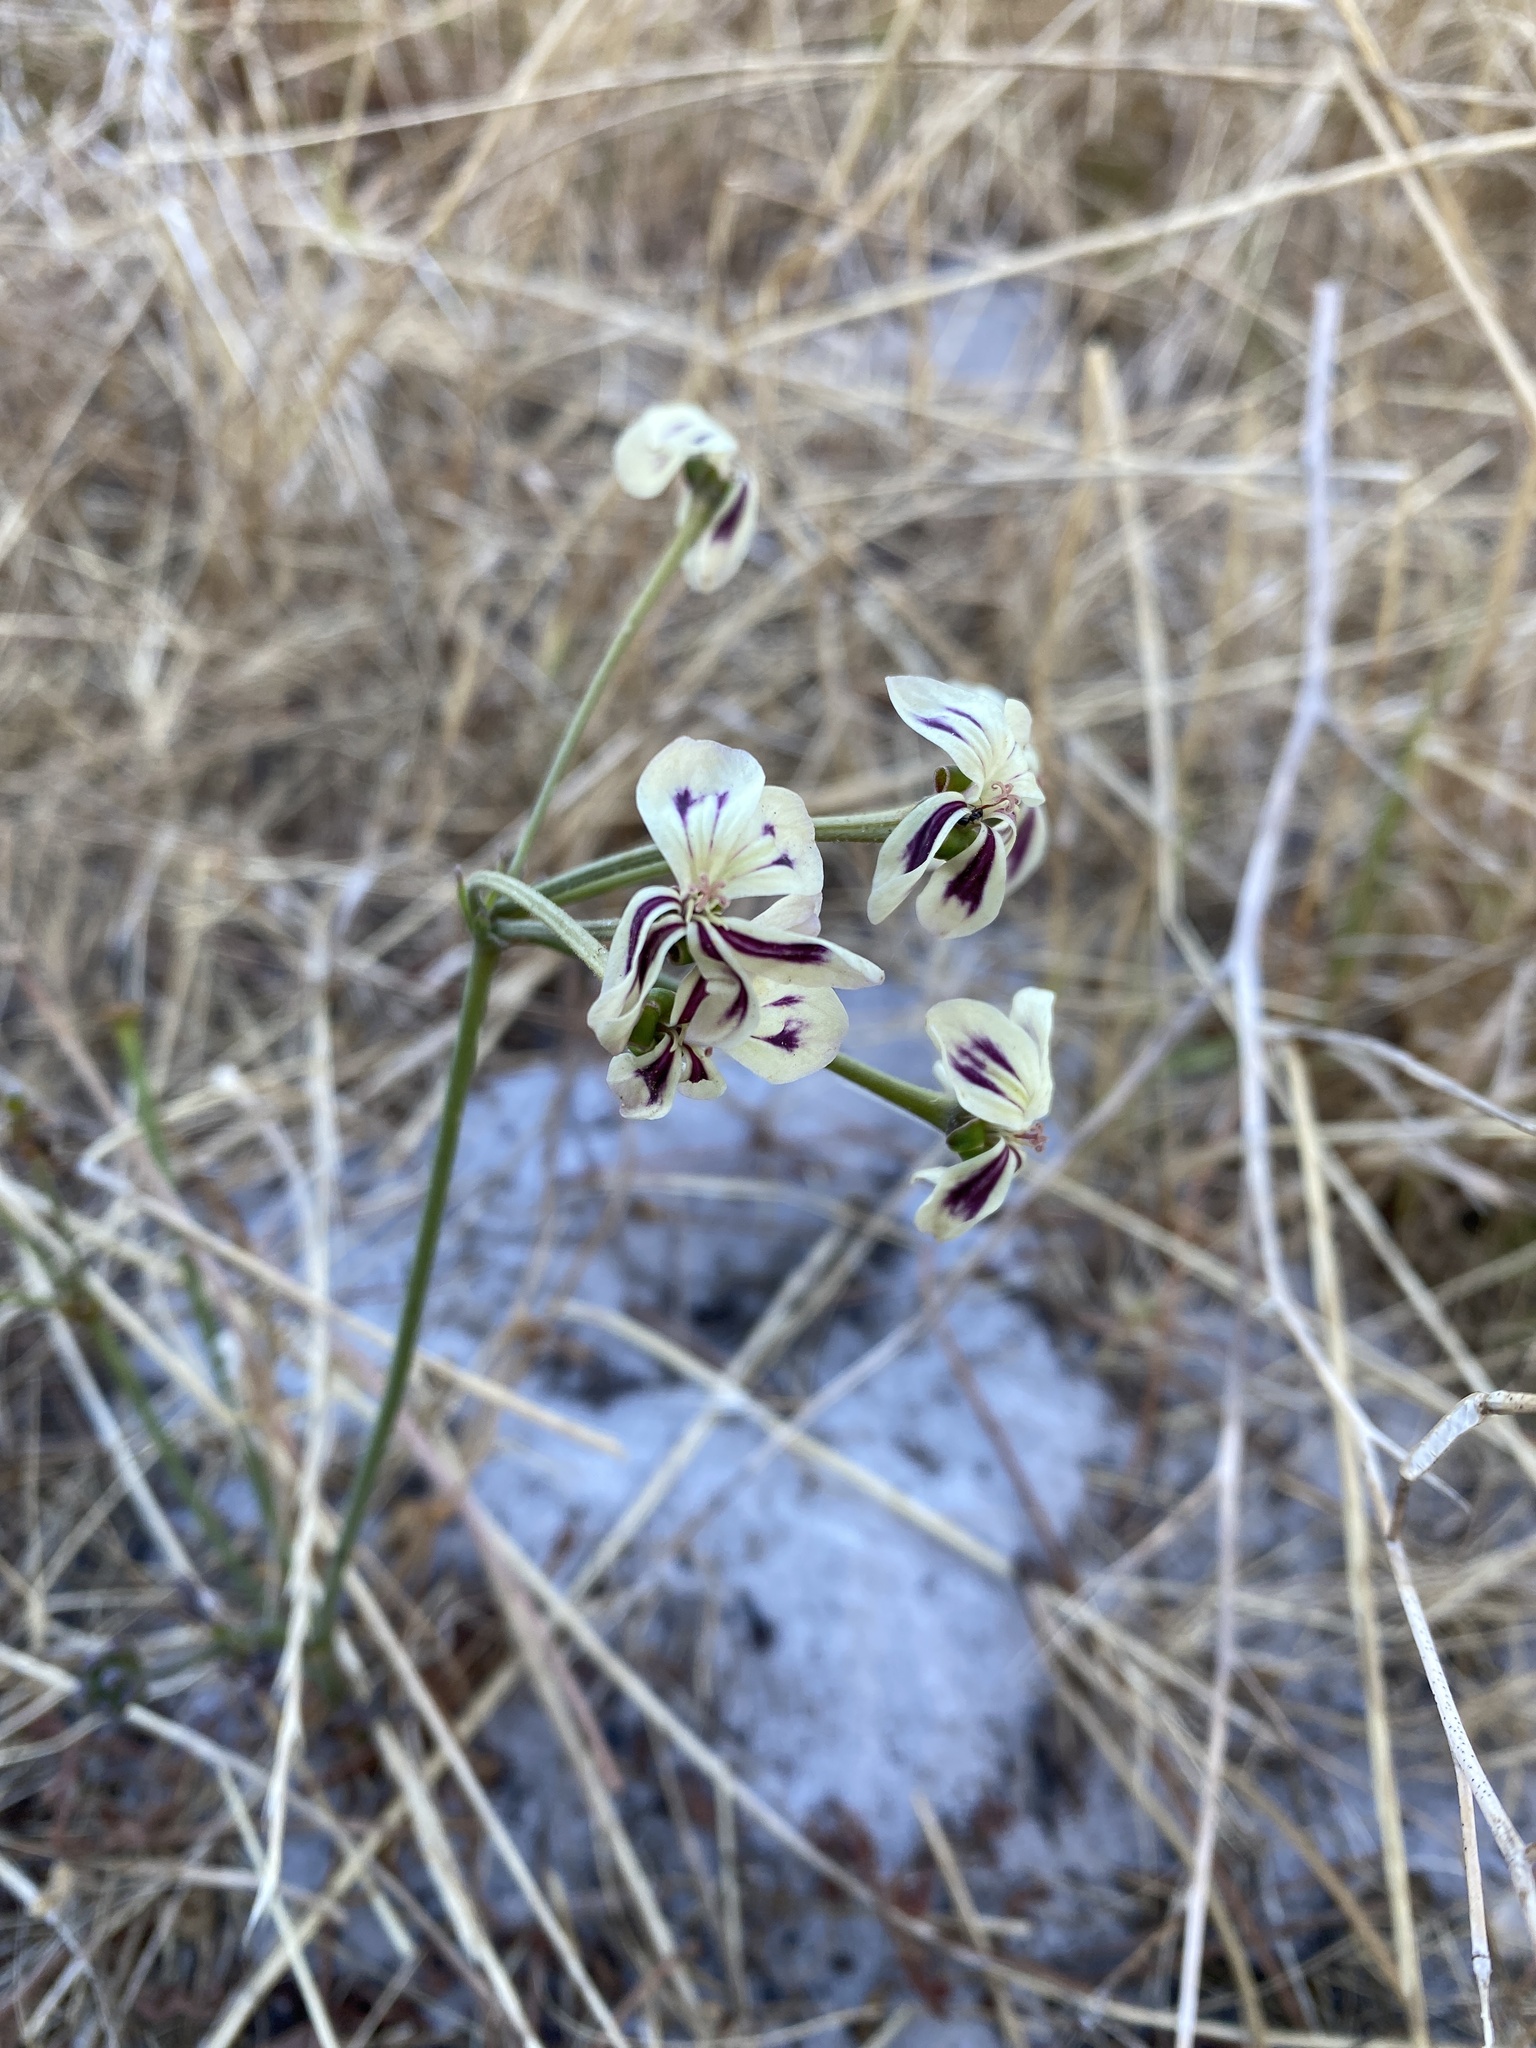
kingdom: Plantae
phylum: Tracheophyta
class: Magnoliopsida
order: Geraniales
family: Geraniaceae
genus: Pelargonium
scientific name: Pelargonium triste
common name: Night-scent pelargonium
